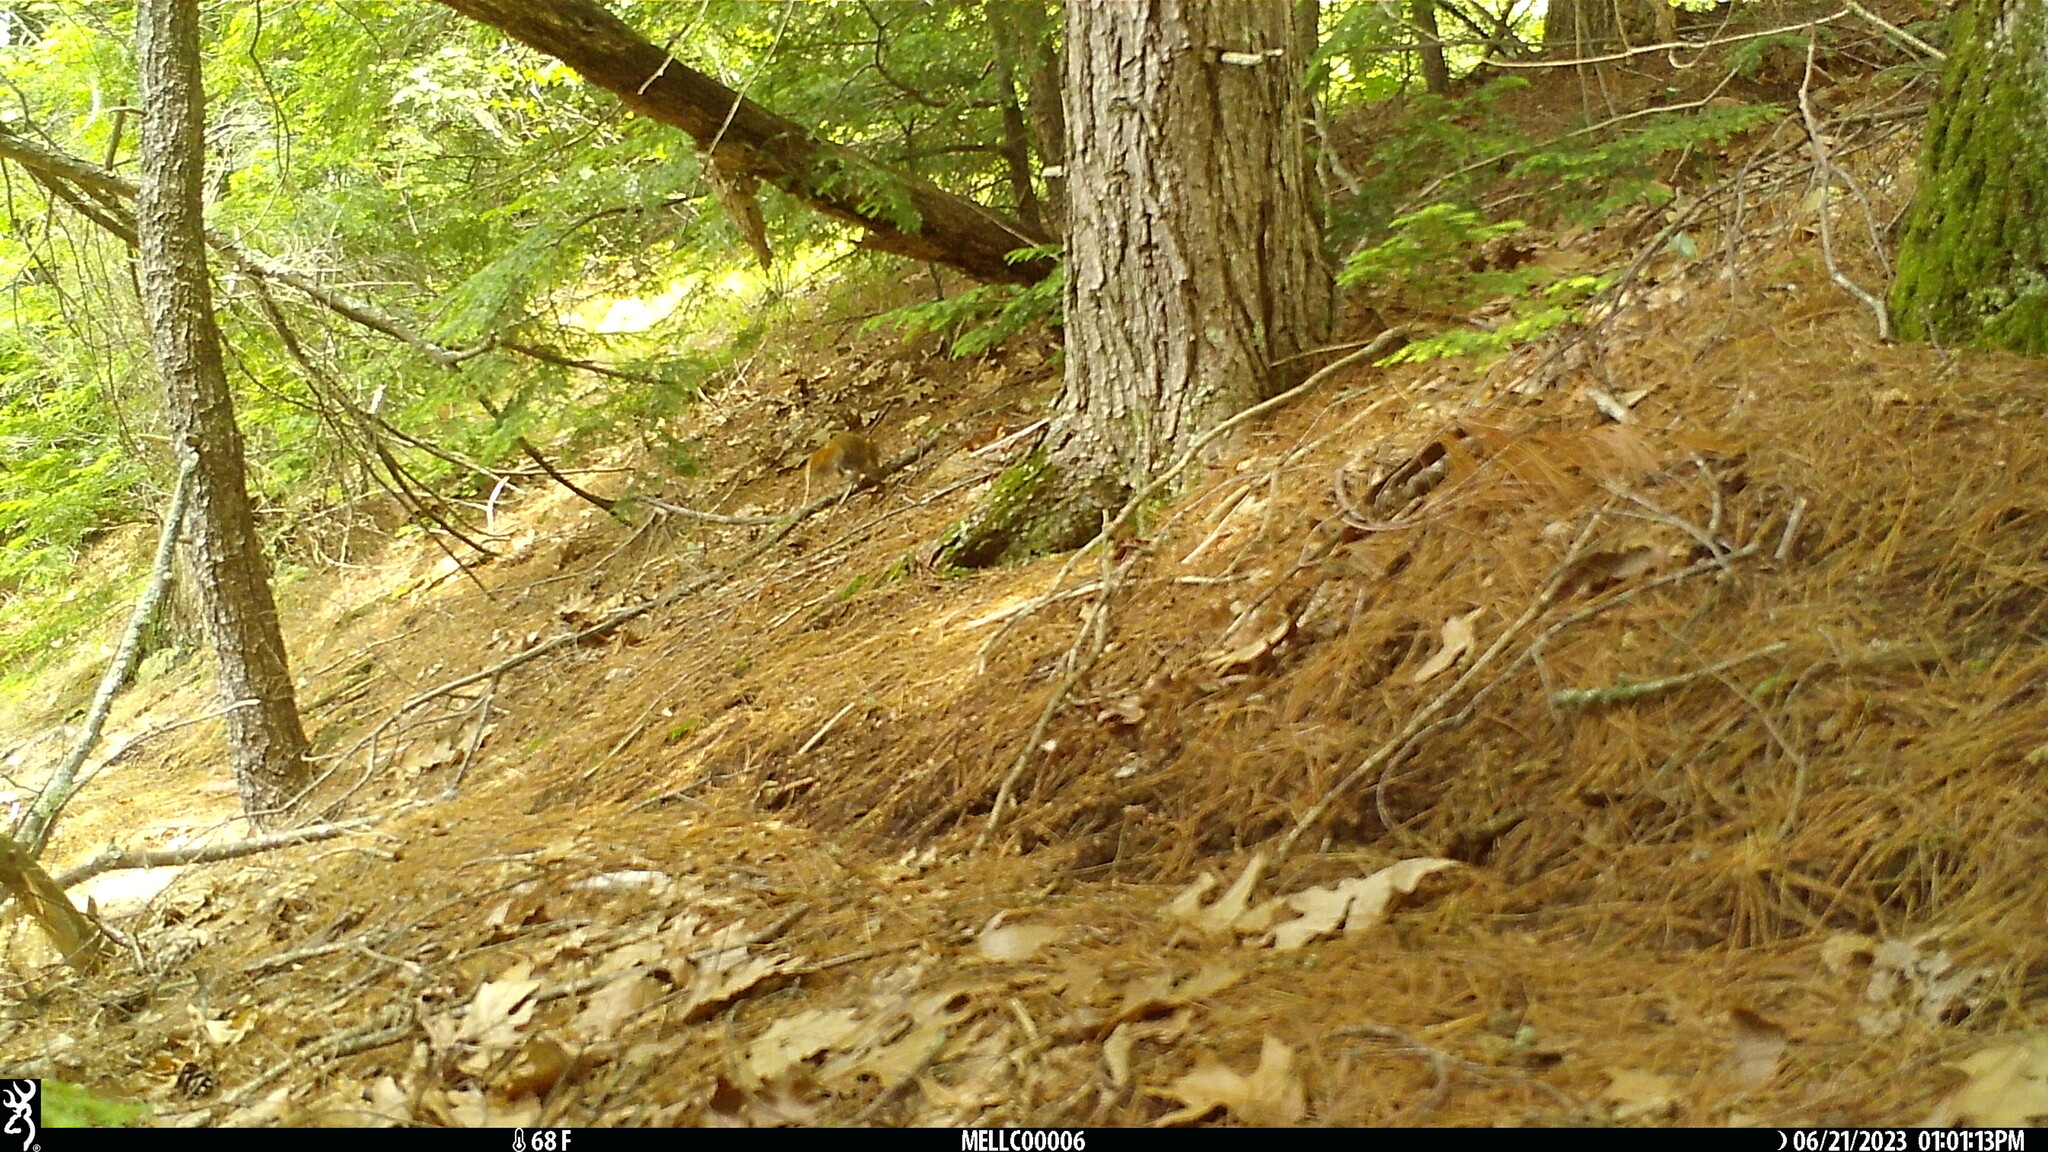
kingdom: Animalia
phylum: Chordata
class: Mammalia
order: Rodentia
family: Sciuridae
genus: Tamiasciurus
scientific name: Tamiasciurus hudsonicus
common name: Red squirrel
